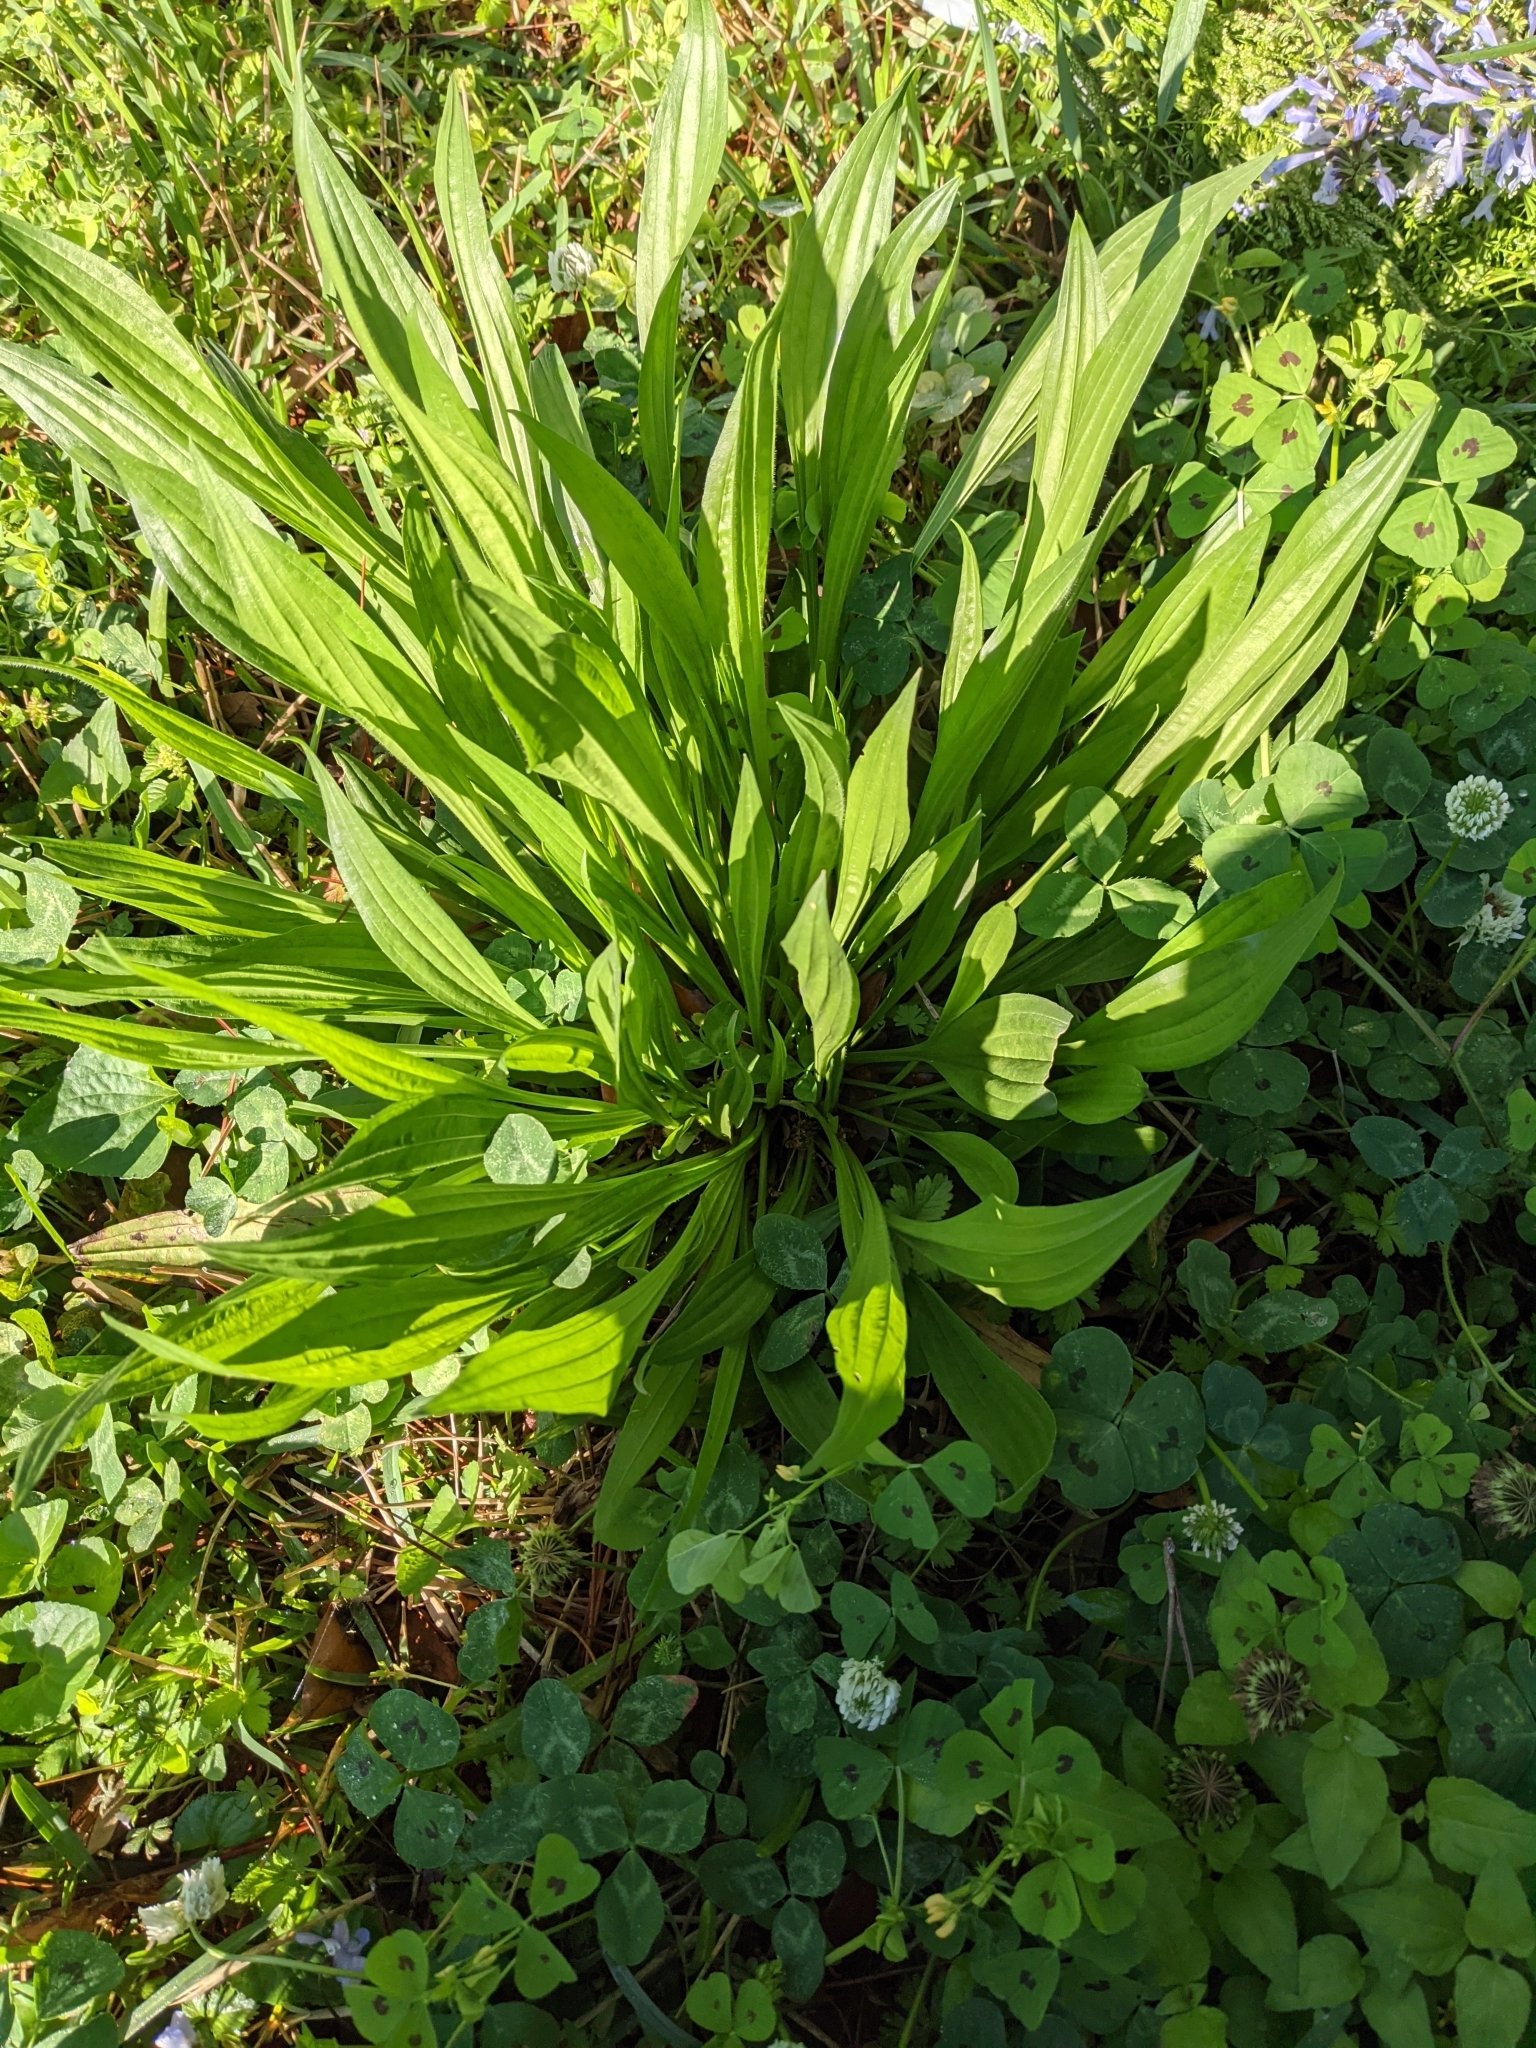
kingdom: Plantae
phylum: Tracheophyta
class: Magnoliopsida
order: Lamiales
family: Plantaginaceae
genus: Plantago
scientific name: Plantago lanceolata
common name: Ribwort plantain
